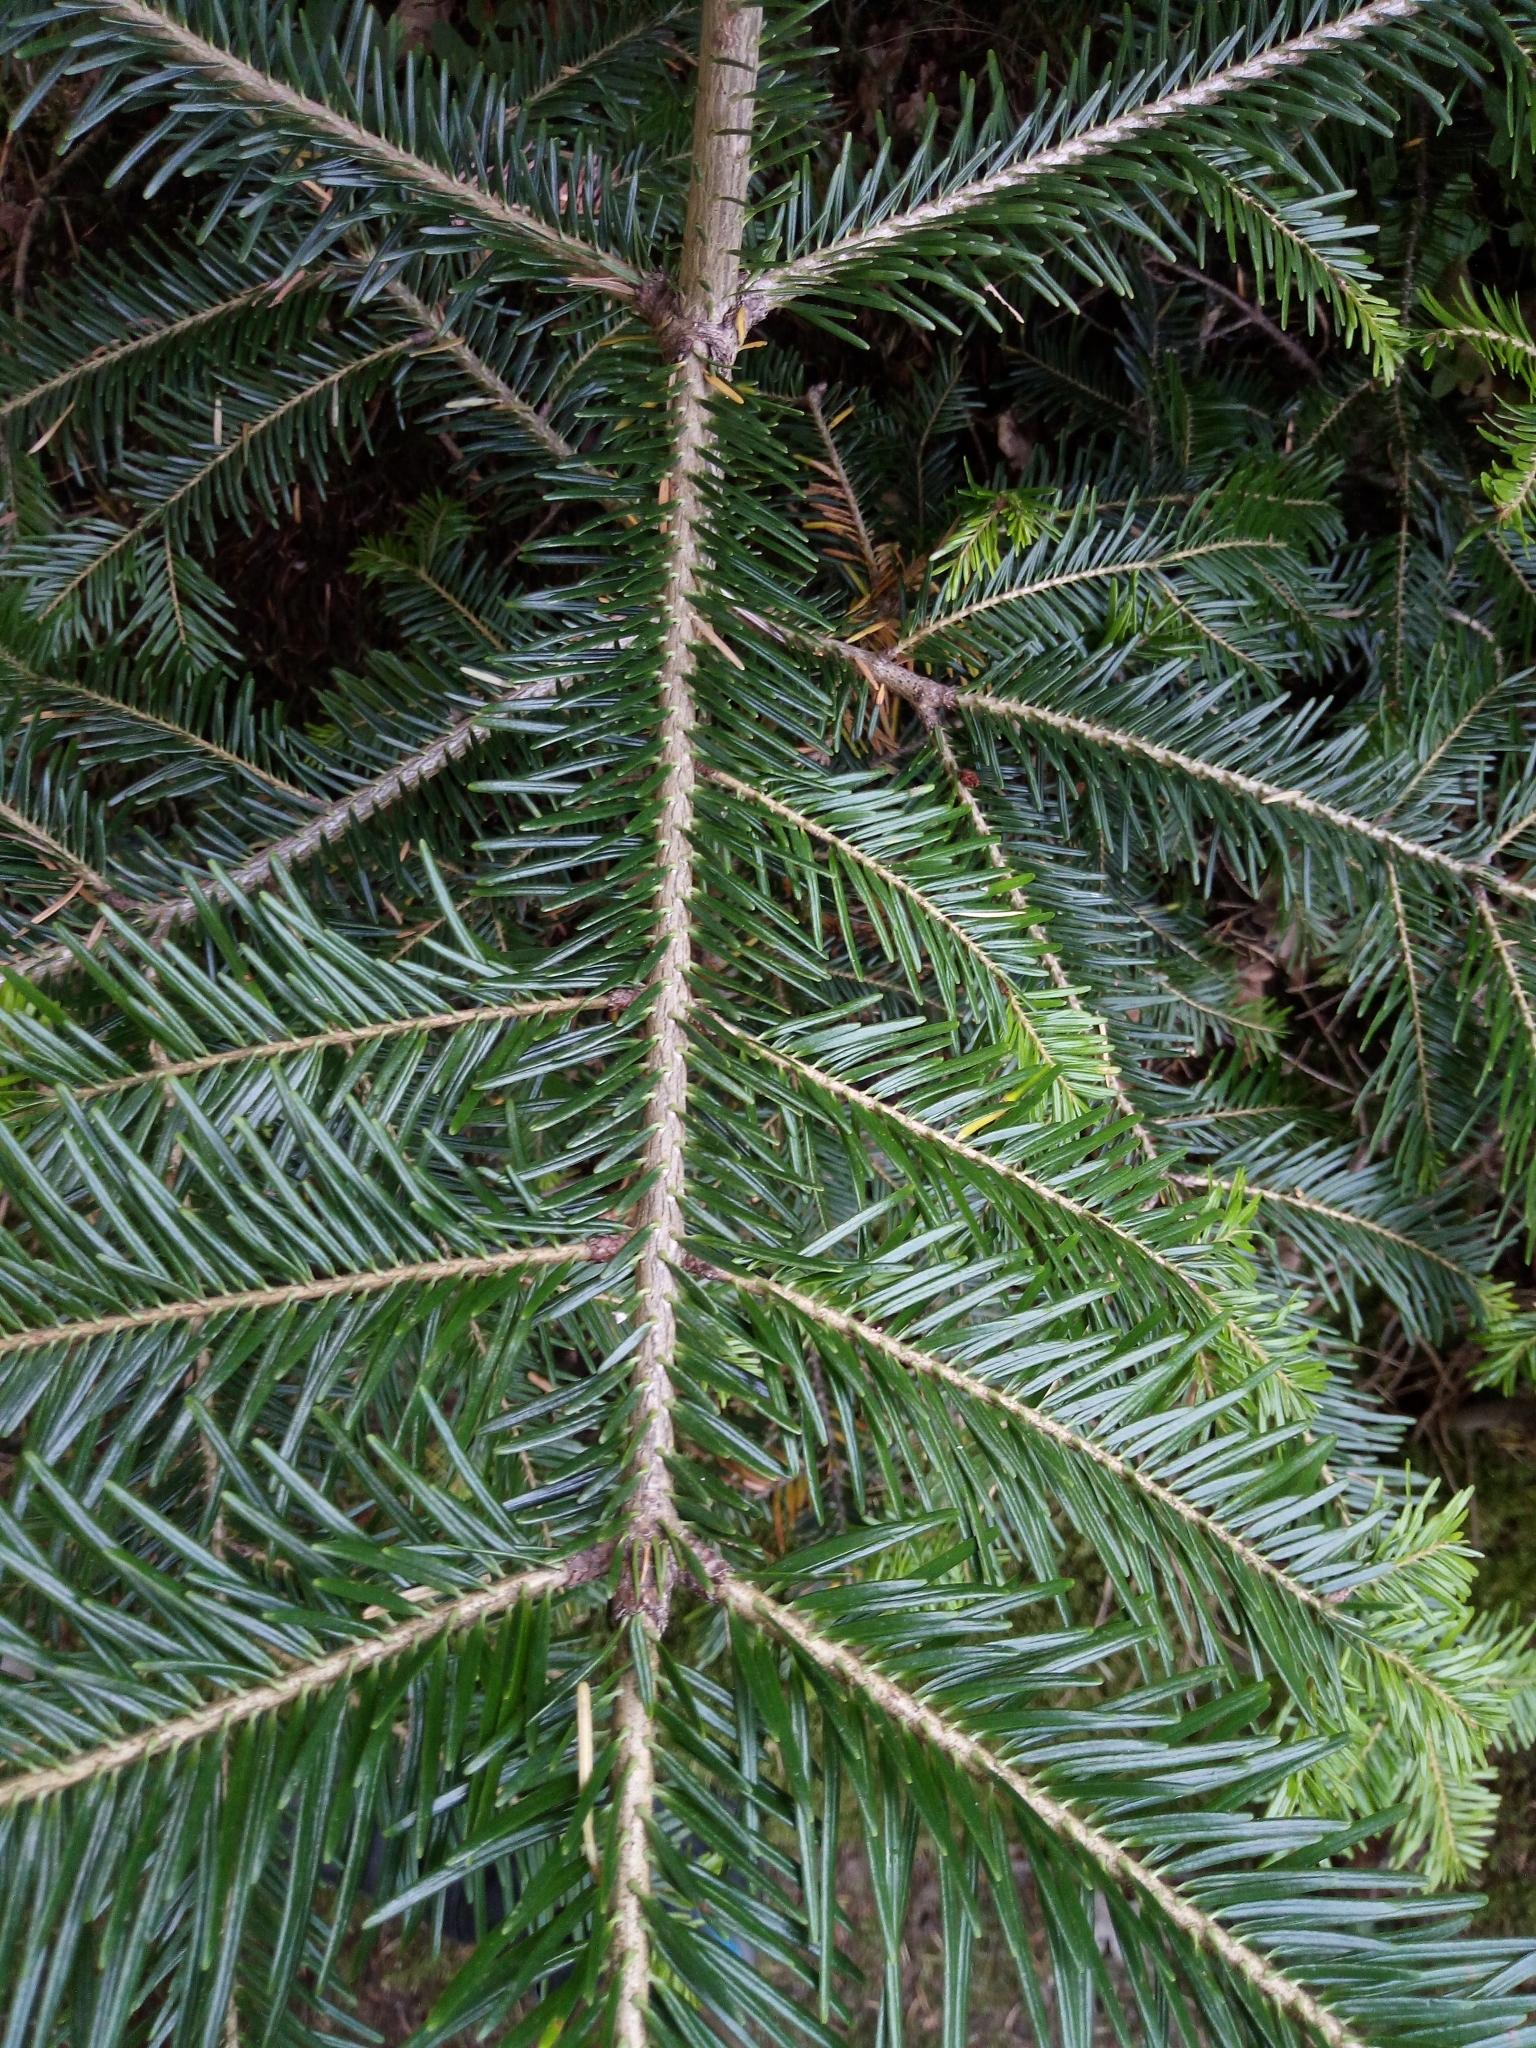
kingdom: Plantae
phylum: Tracheophyta
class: Pinopsida
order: Pinales
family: Pinaceae
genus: Abies
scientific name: Abies alba
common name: Silver fir
